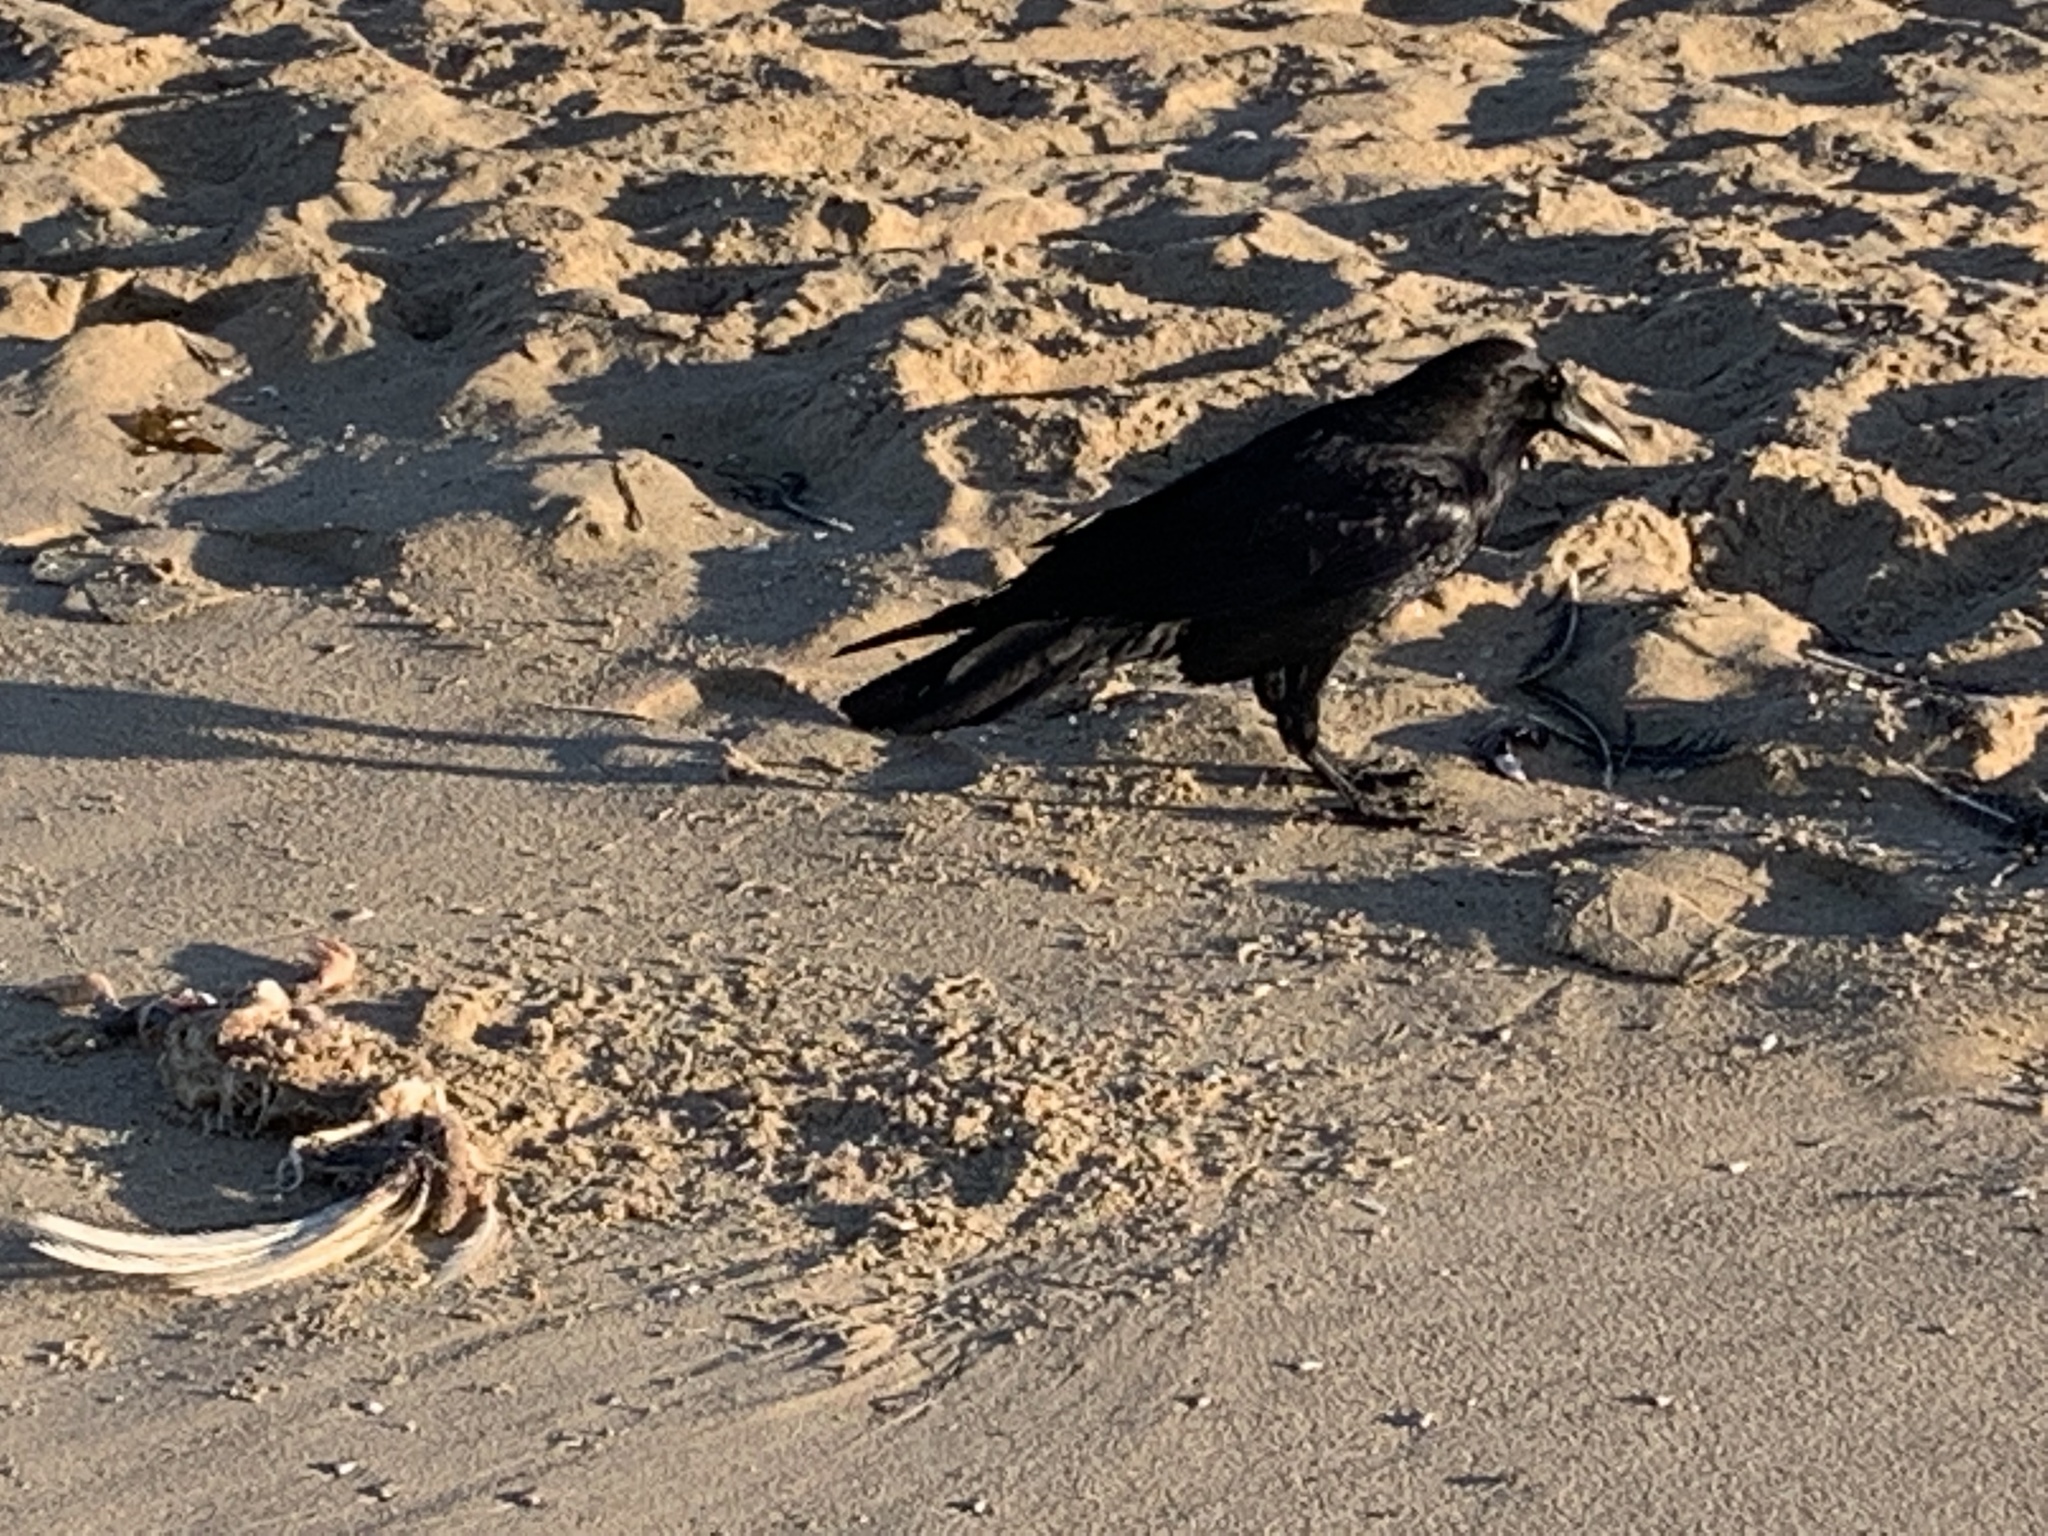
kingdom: Animalia
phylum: Chordata
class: Aves
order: Passeriformes
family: Corvidae
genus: Corvus
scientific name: Corvus corax
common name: Common raven
